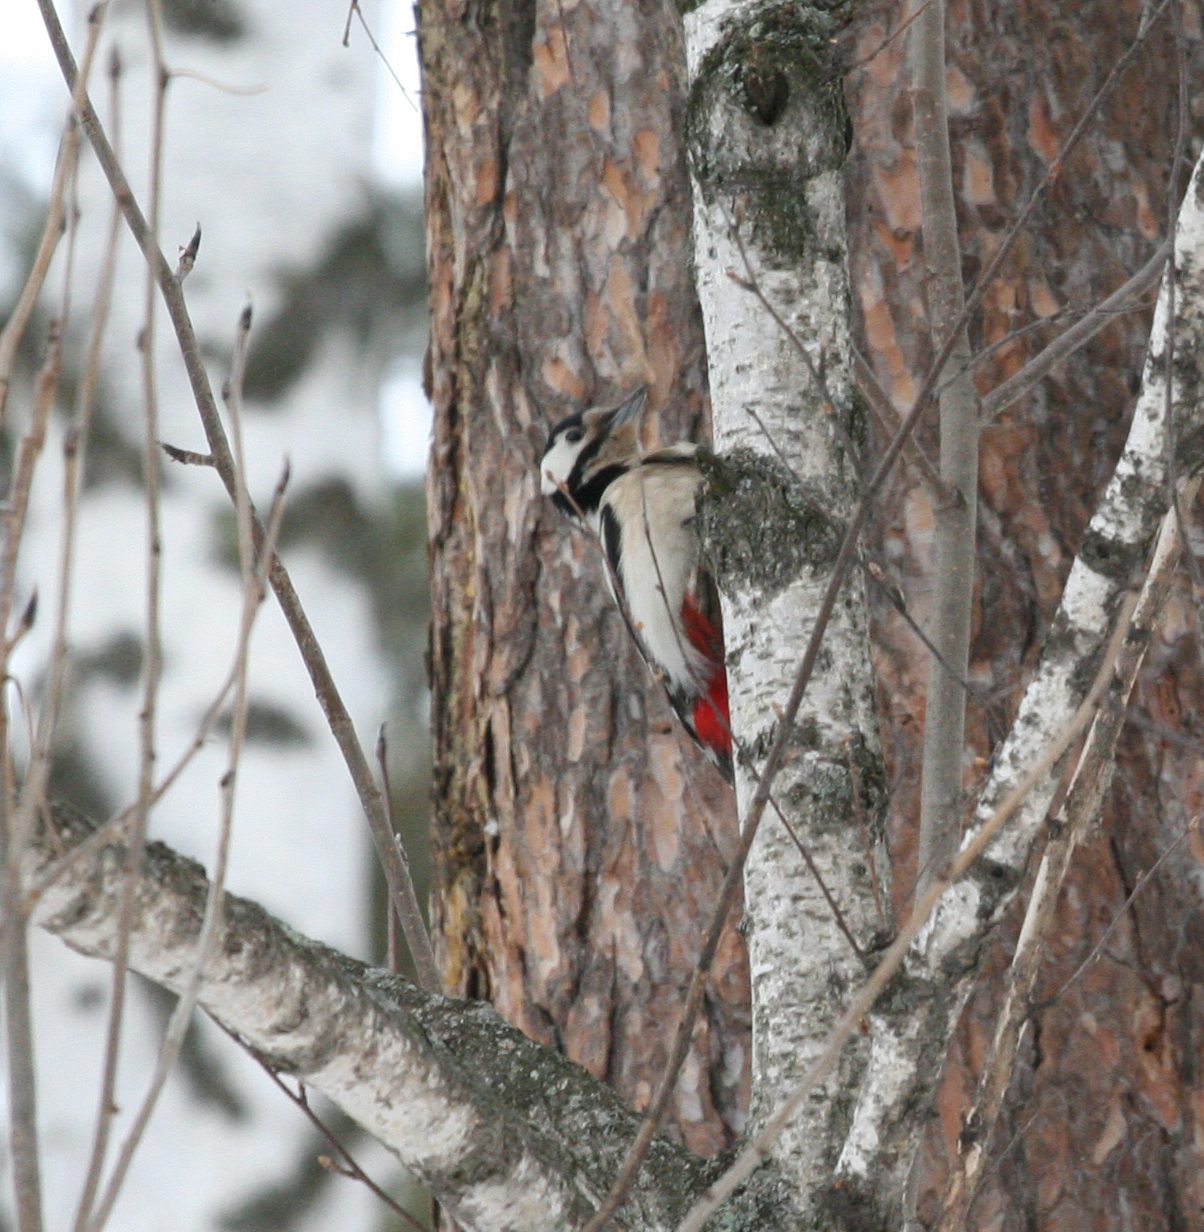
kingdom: Animalia
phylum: Chordata
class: Aves
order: Piciformes
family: Picidae
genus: Dendrocopos
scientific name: Dendrocopos major
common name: Great spotted woodpecker
